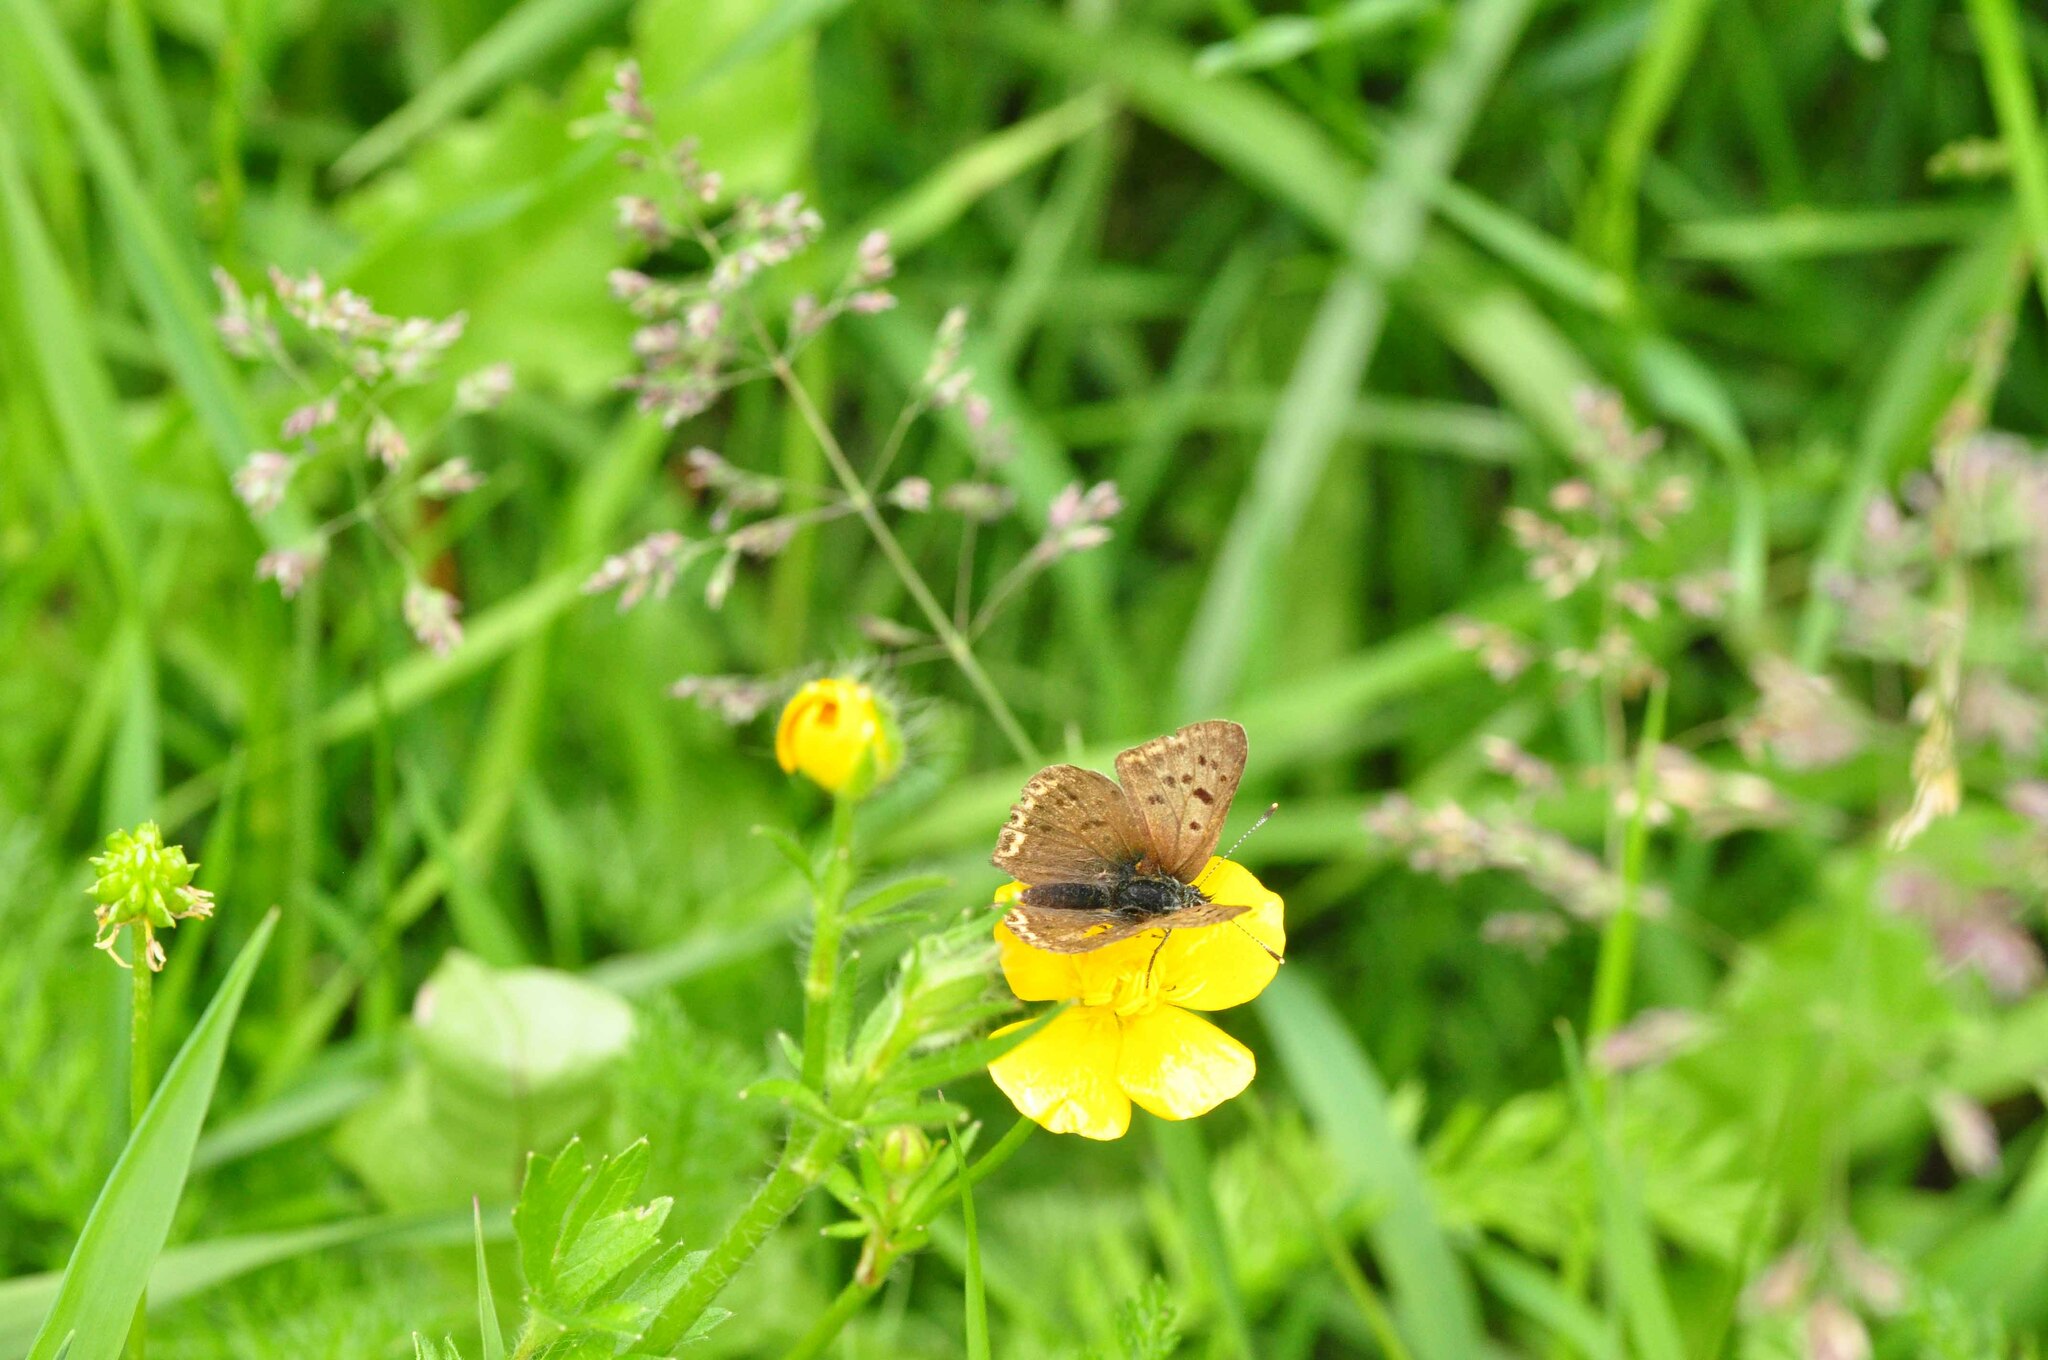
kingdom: Animalia
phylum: Arthropoda
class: Insecta
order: Lepidoptera
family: Lycaenidae
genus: Loweia
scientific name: Loweia tityrus
